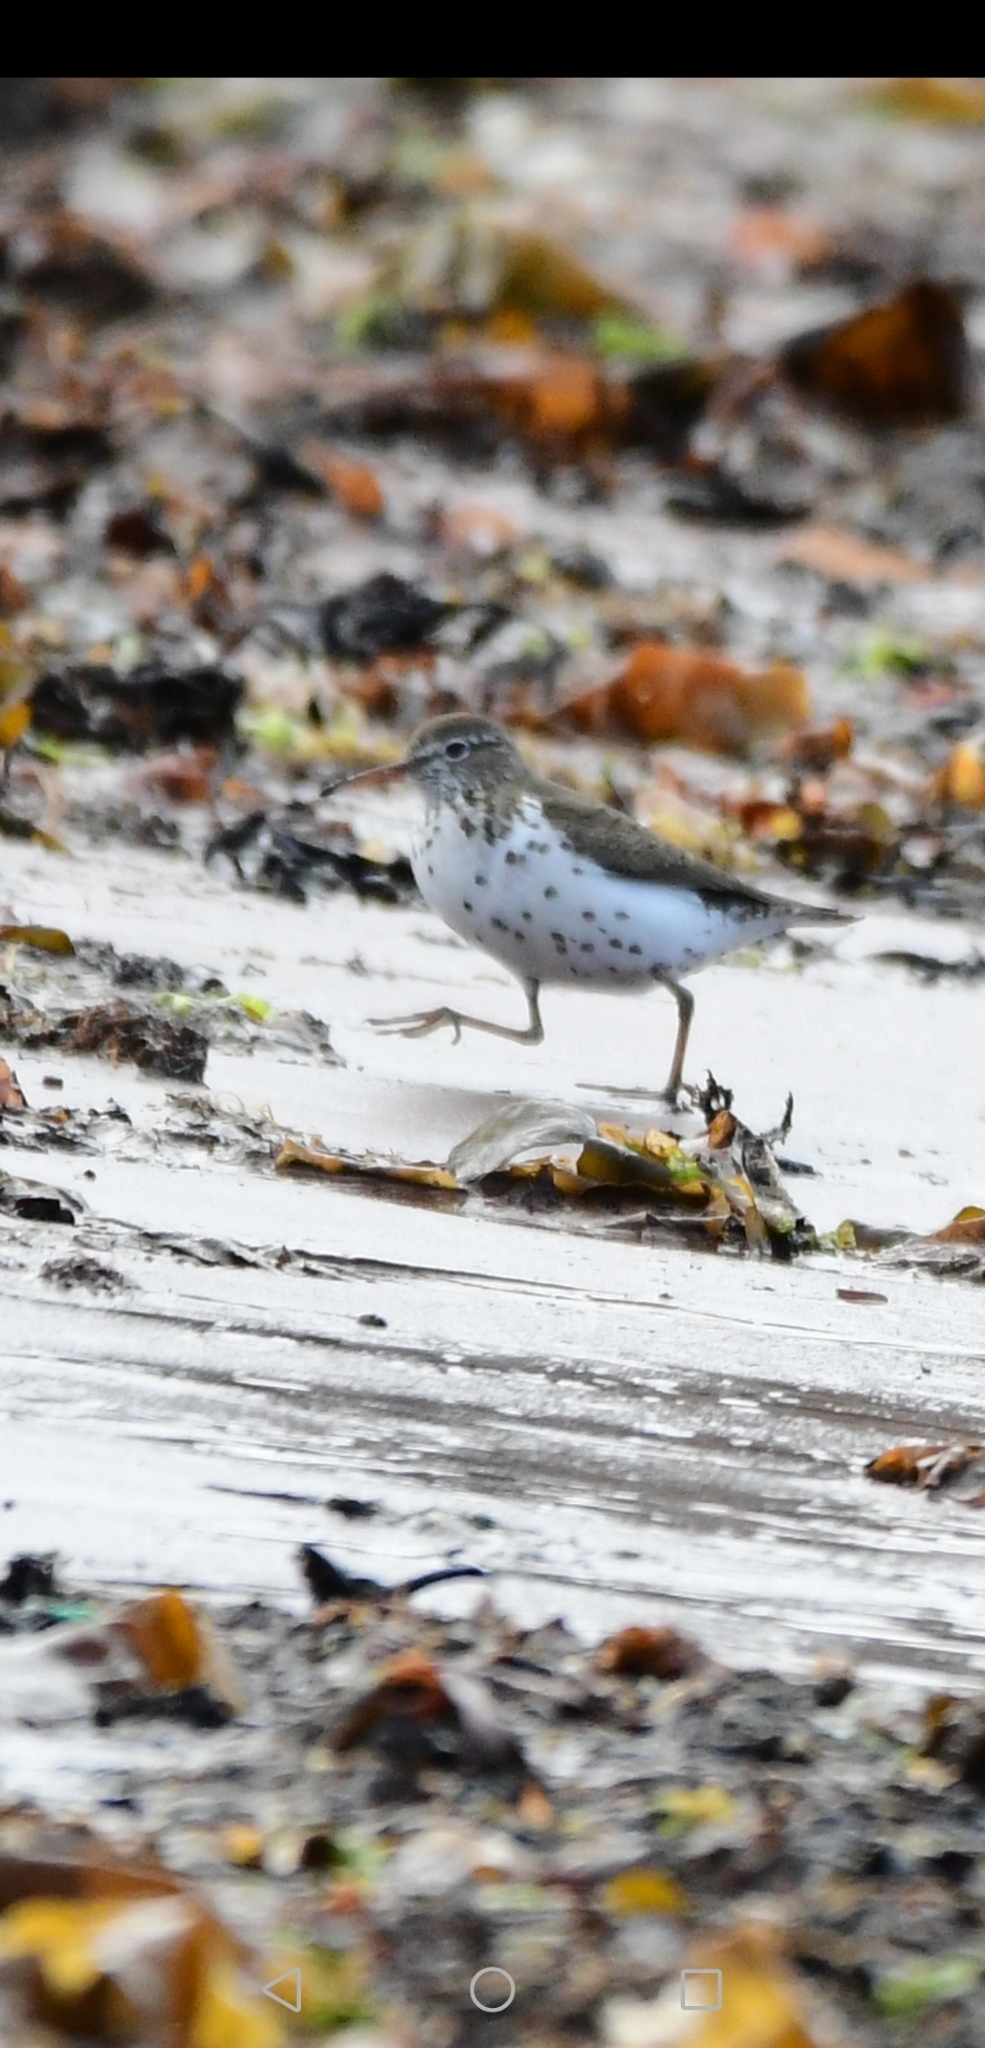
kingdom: Animalia
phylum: Chordata
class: Aves
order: Charadriiformes
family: Scolopacidae
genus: Actitis
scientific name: Actitis macularius
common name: Spotted sandpiper
